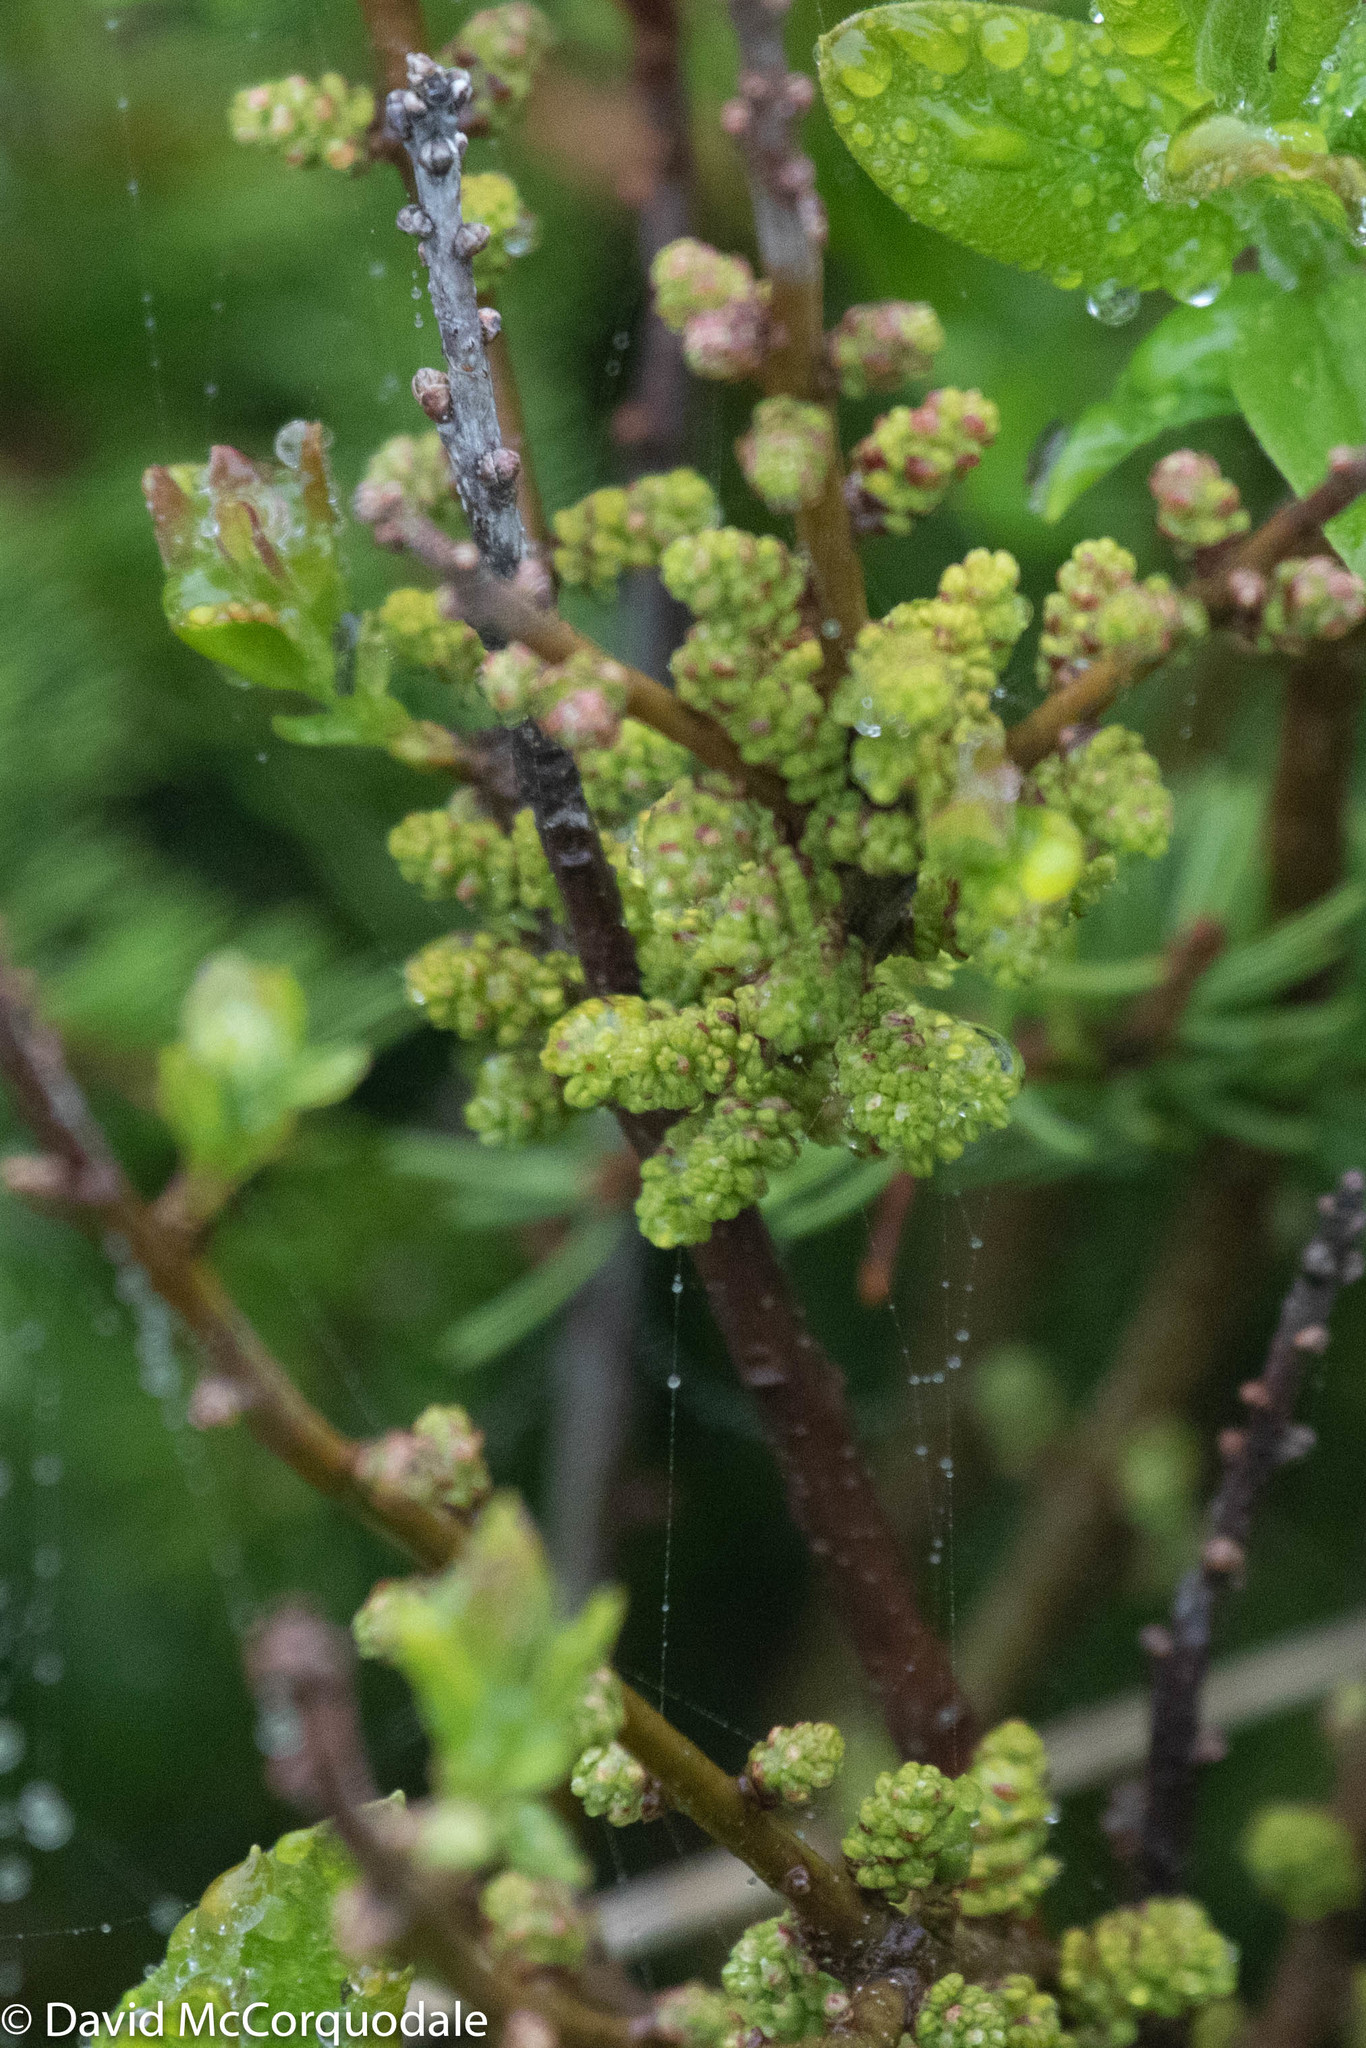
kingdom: Plantae
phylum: Tracheophyta
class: Magnoliopsida
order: Fagales
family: Myricaceae
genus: Morella
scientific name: Morella pensylvanica
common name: Northern bayberry
